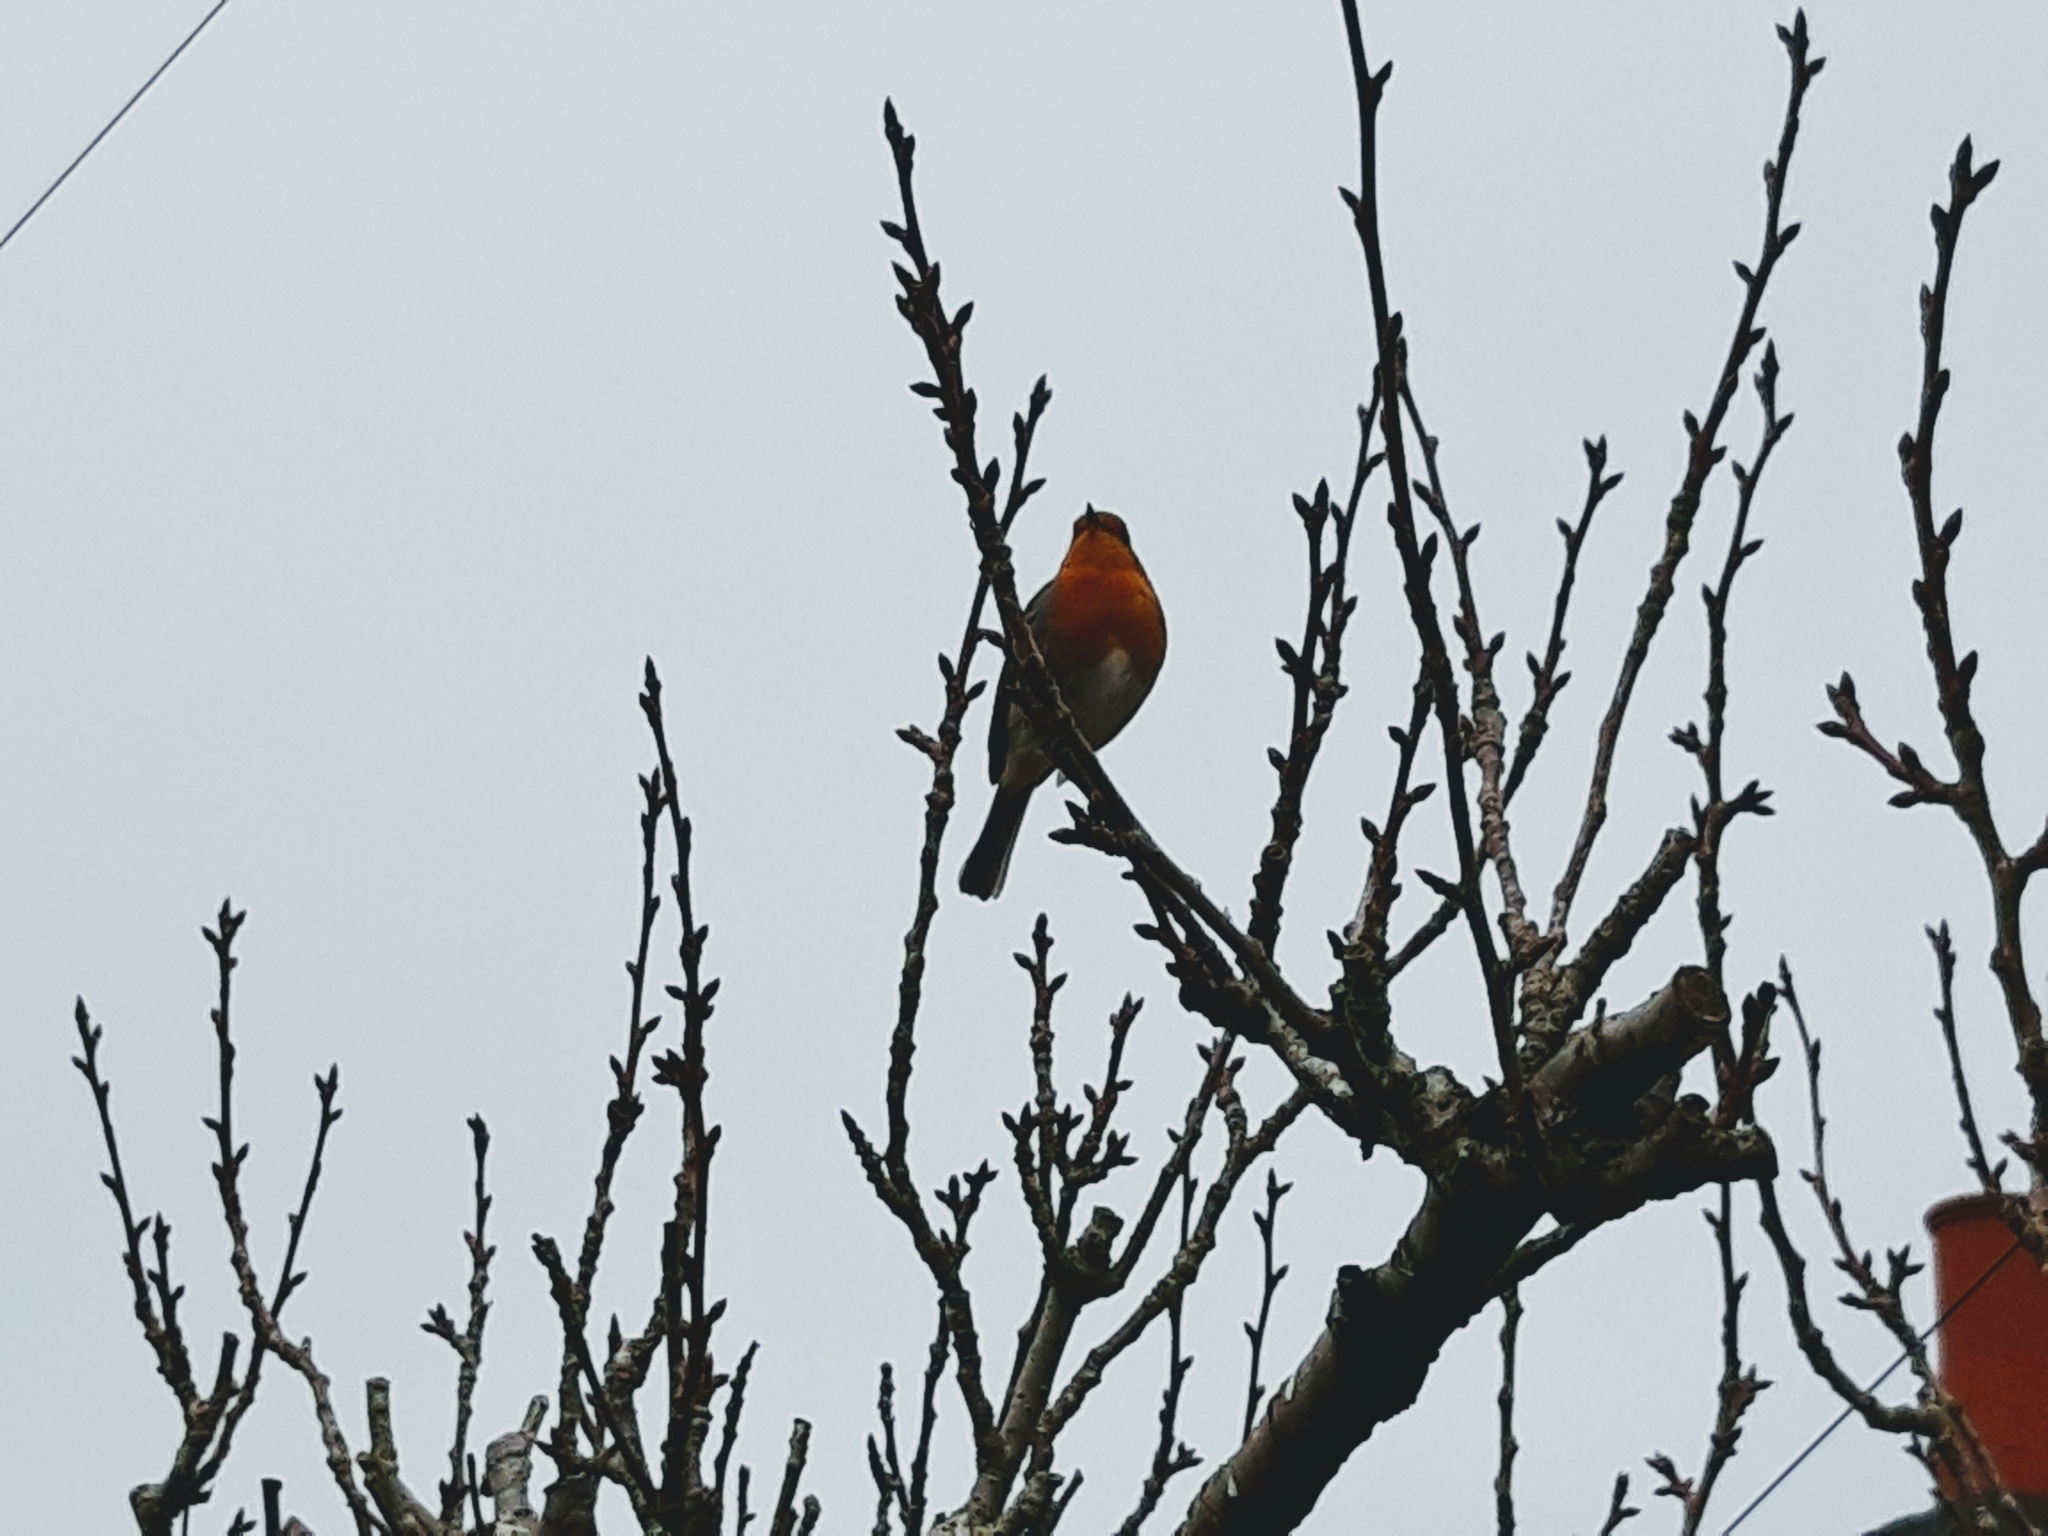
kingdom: Animalia
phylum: Chordata
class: Aves
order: Passeriformes
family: Muscicapidae
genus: Erithacus
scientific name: Erithacus rubecula
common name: European robin
